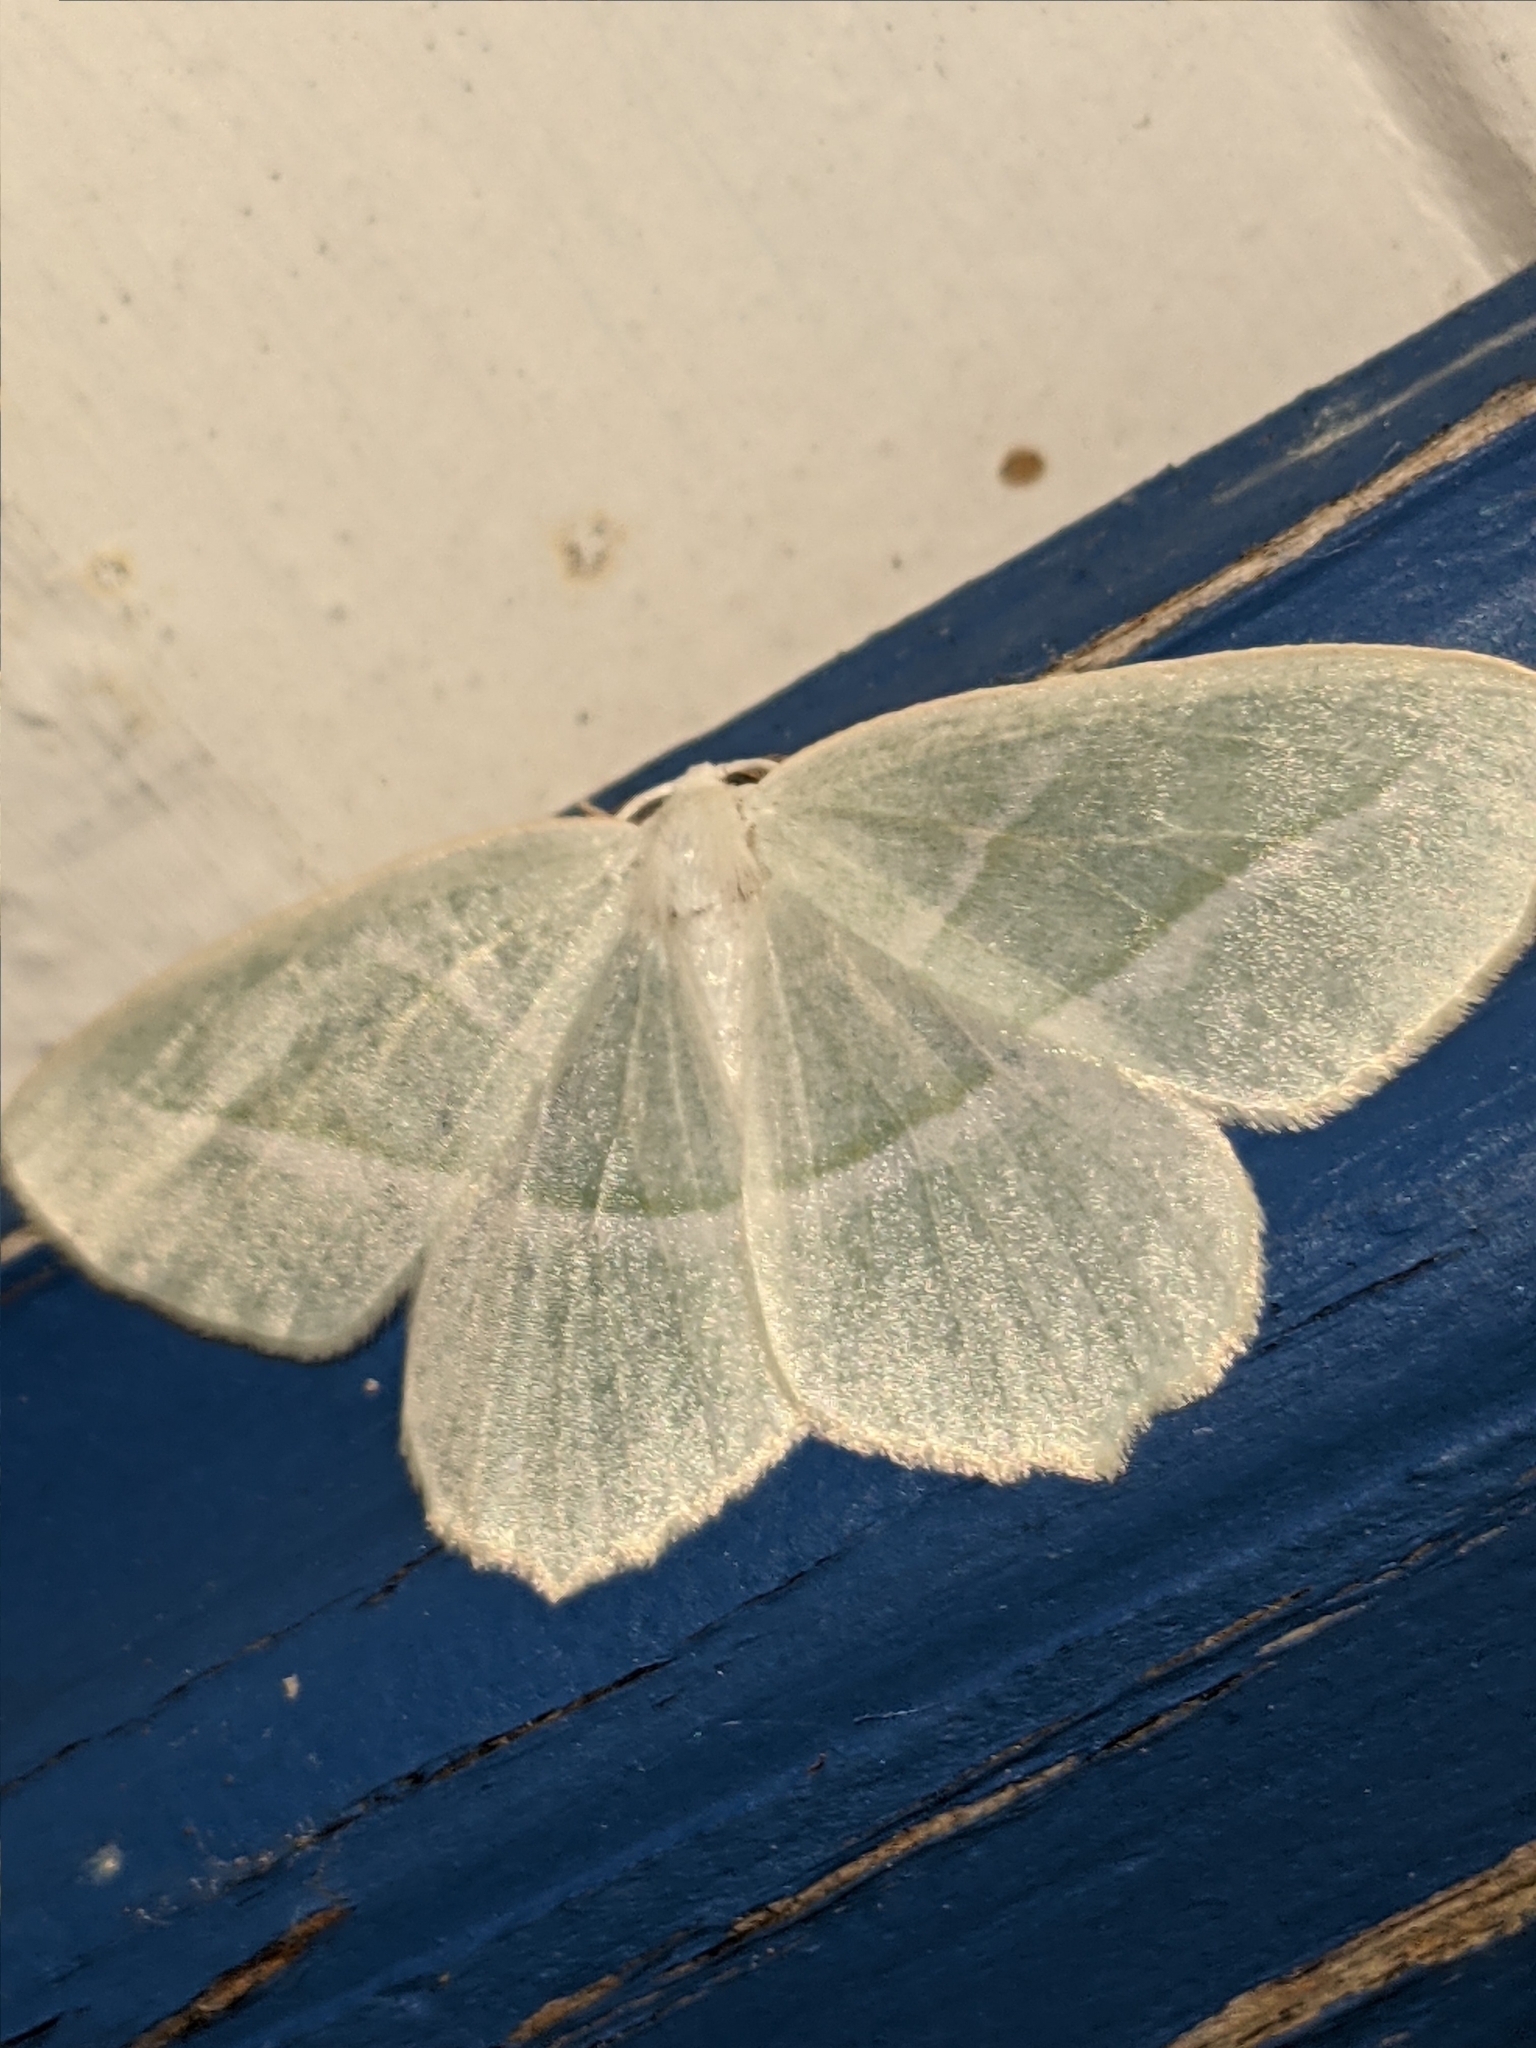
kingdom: Animalia
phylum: Arthropoda
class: Insecta
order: Lepidoptera
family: Geometridae
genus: Campaea
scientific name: Campaea perlata
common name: Fringed looper
